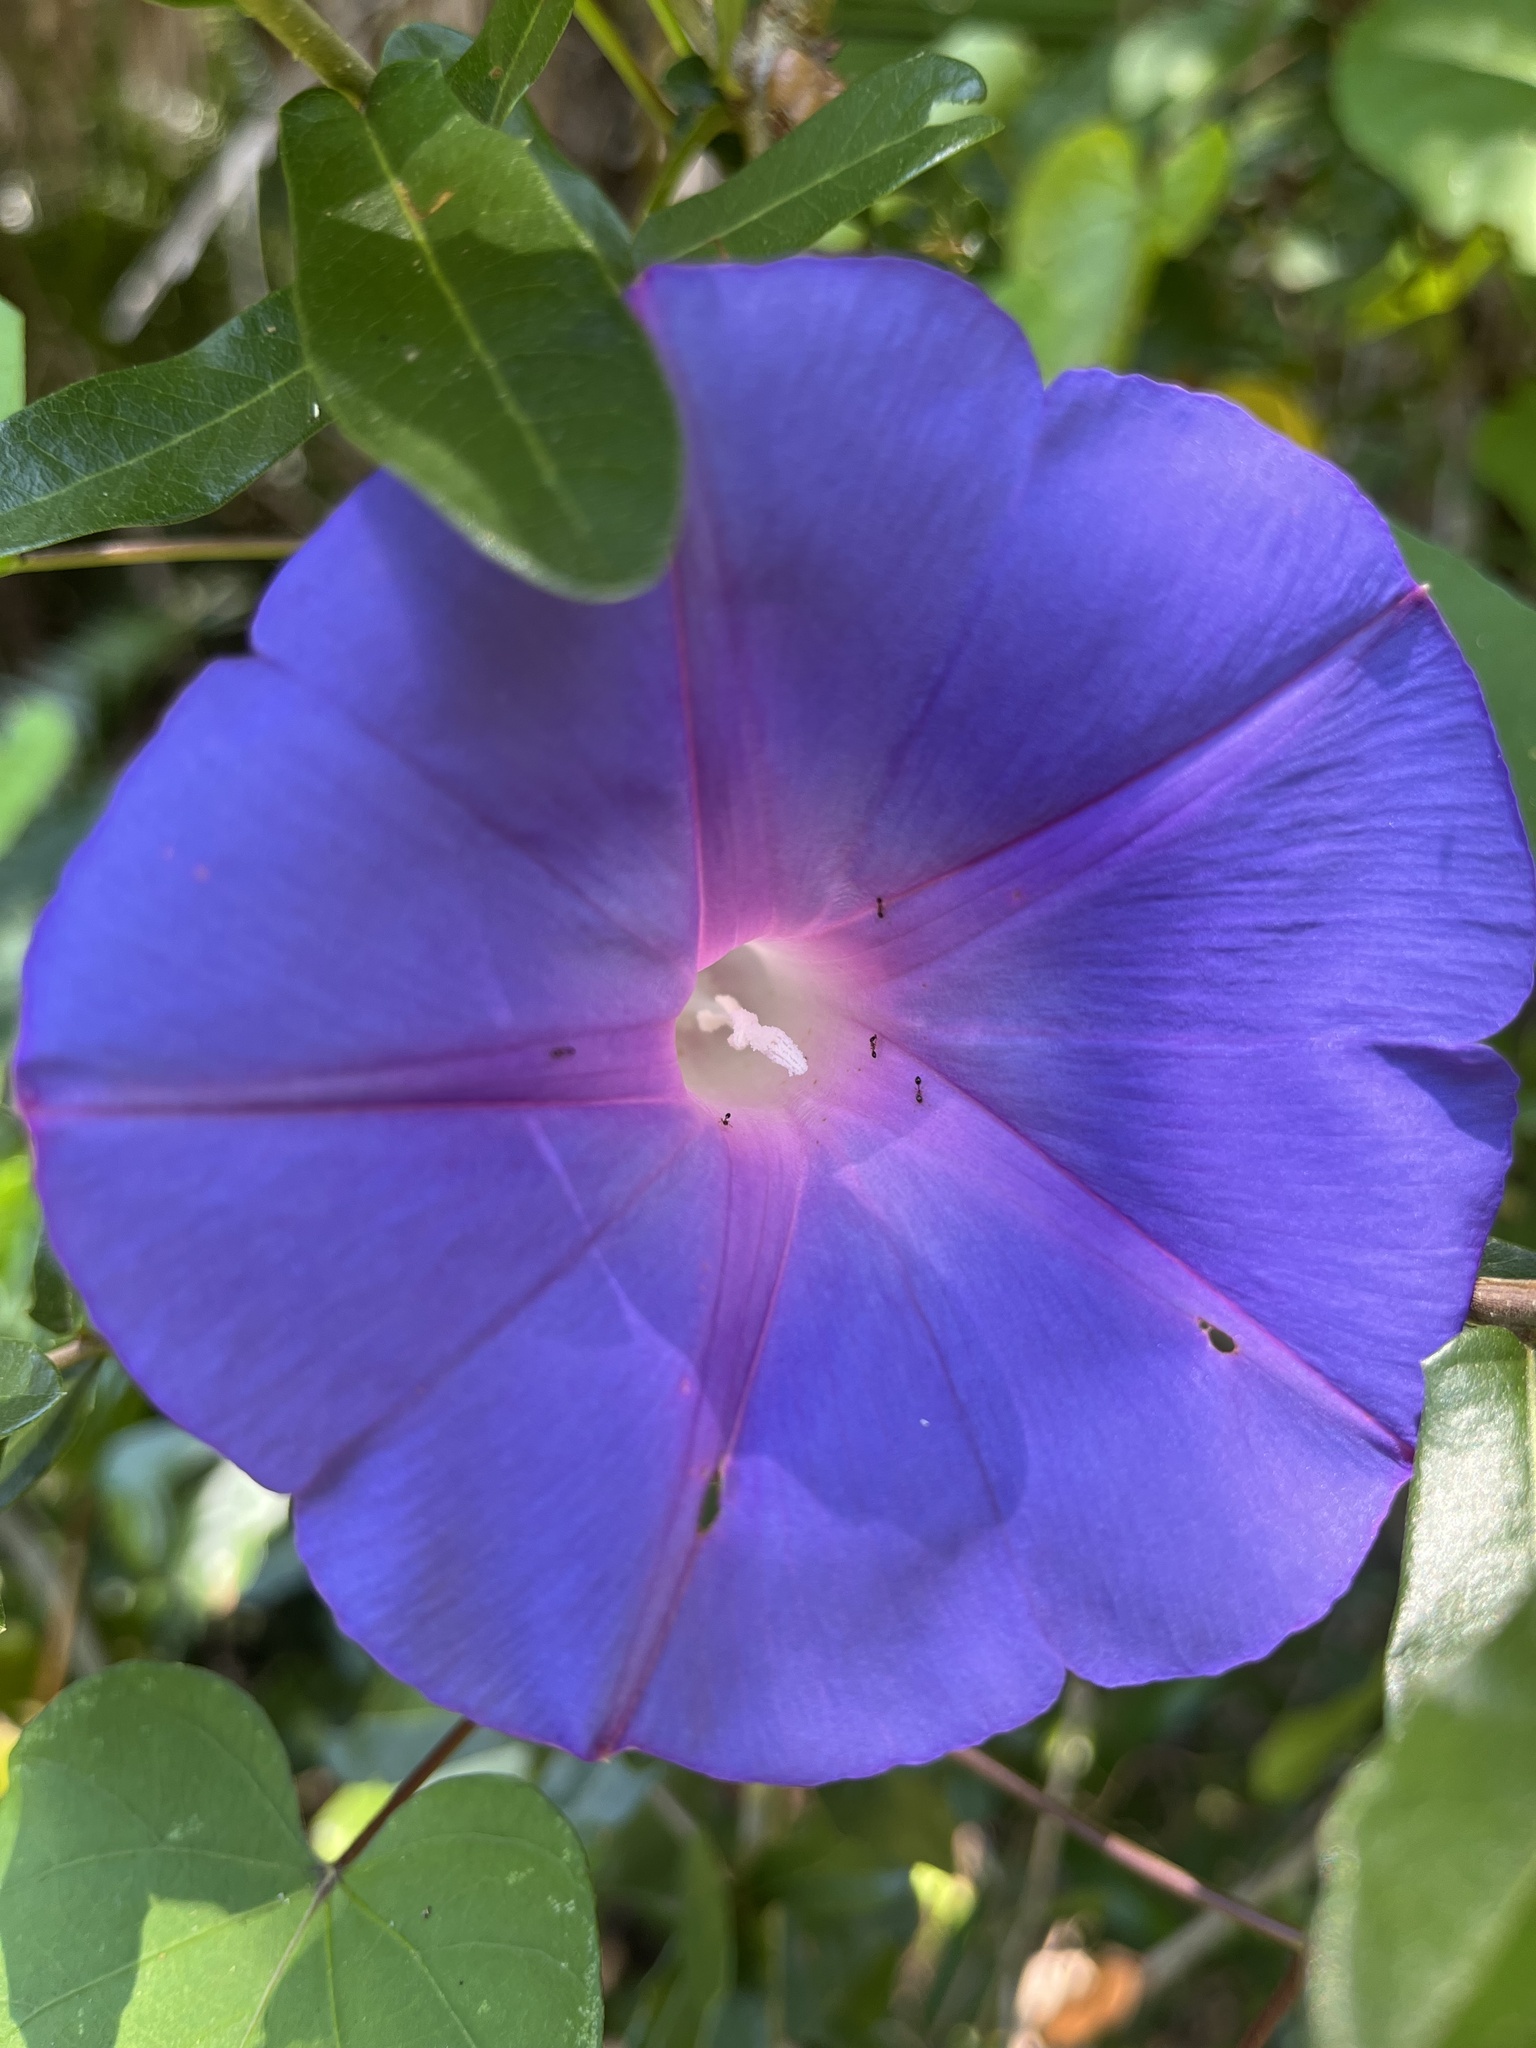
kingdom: Plantae
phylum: Tracheophyta
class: Magnoliopsida
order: Solanales
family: Convolvulaceae
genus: Ipomoea
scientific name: Ipomoea indica
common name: Blue dawnflower
